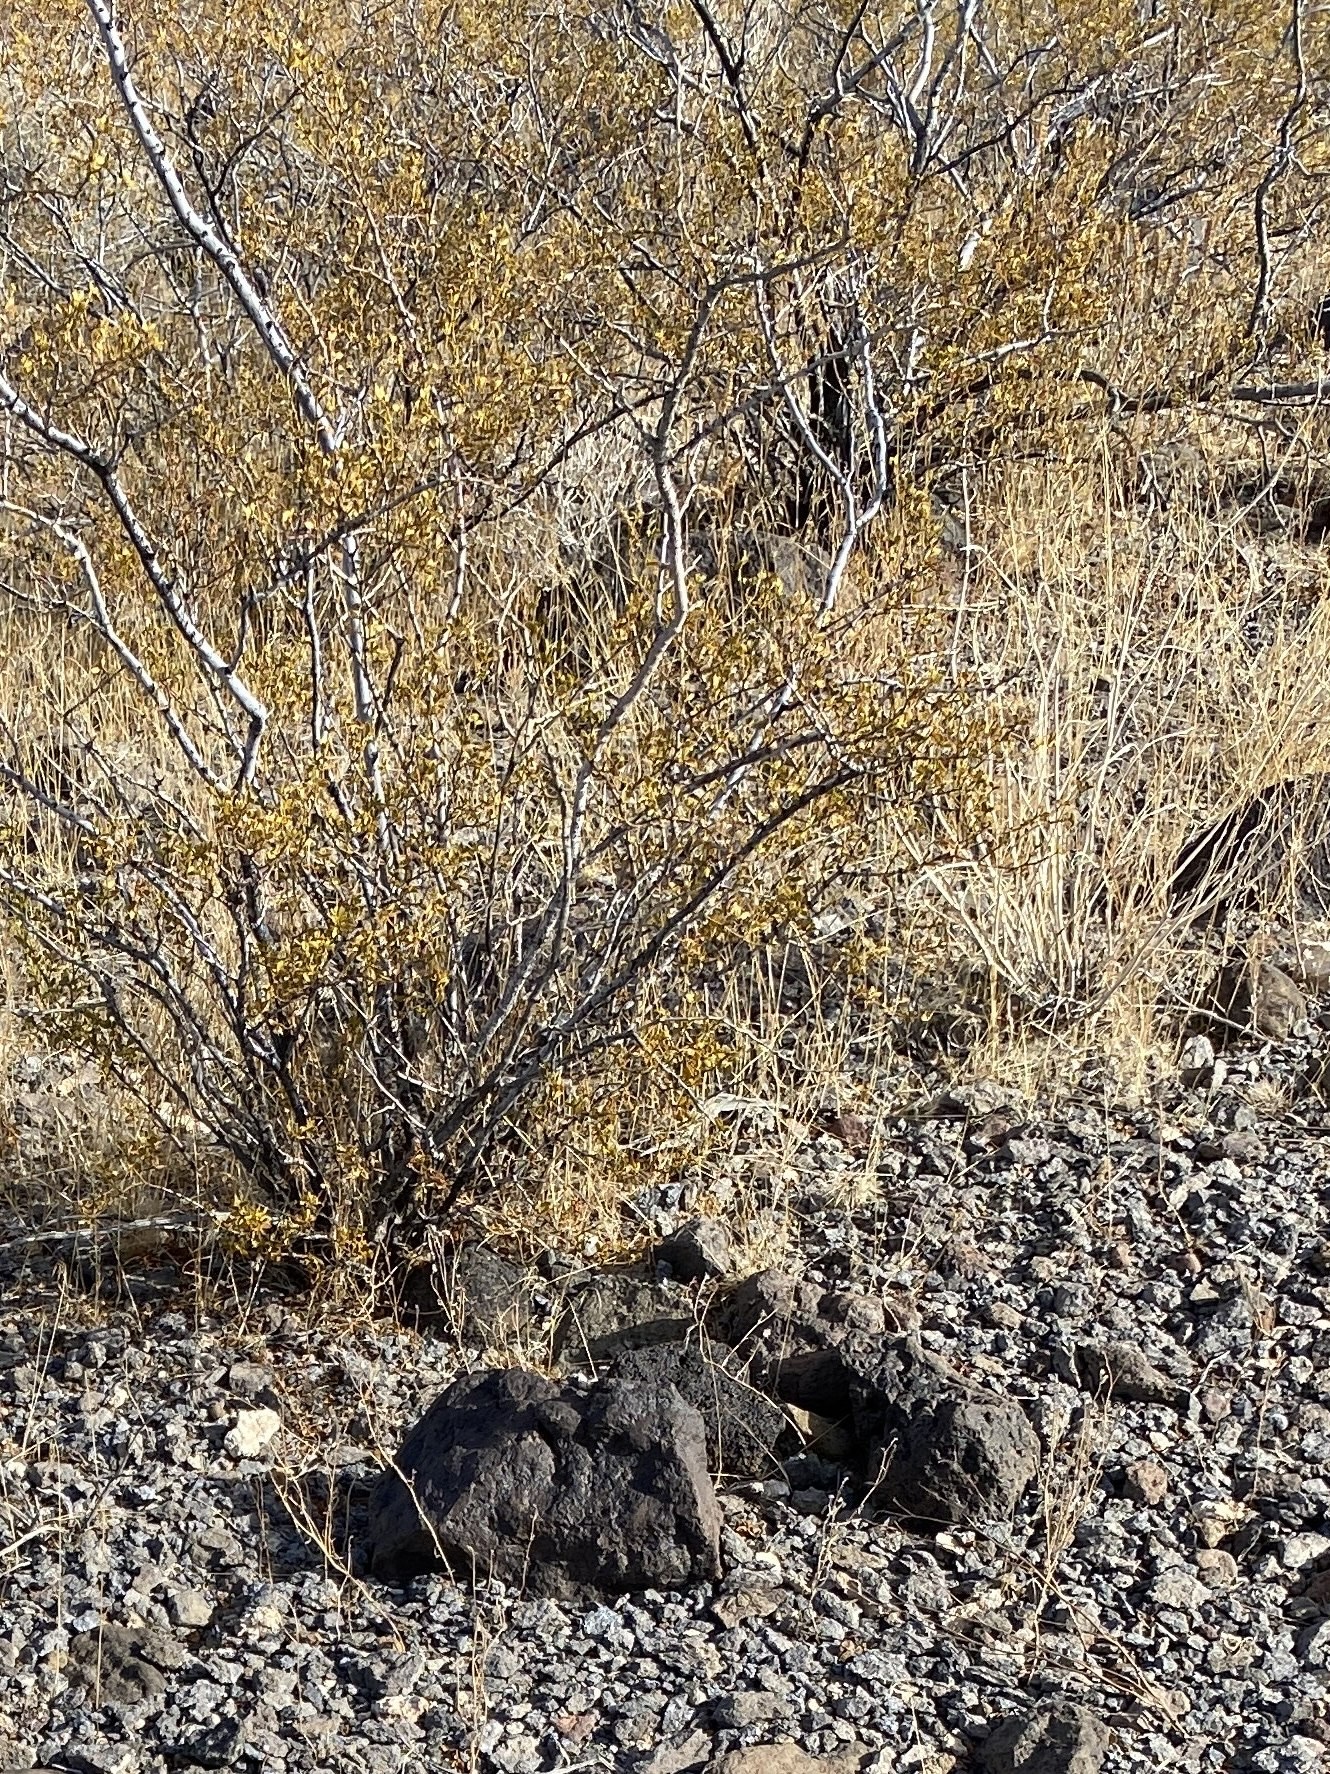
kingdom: Plantae
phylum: Tracheophyta
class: Magnoliopsida
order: Zygophyllales
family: Zygophyllaceae
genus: Larrea
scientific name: Larrea tridentata
